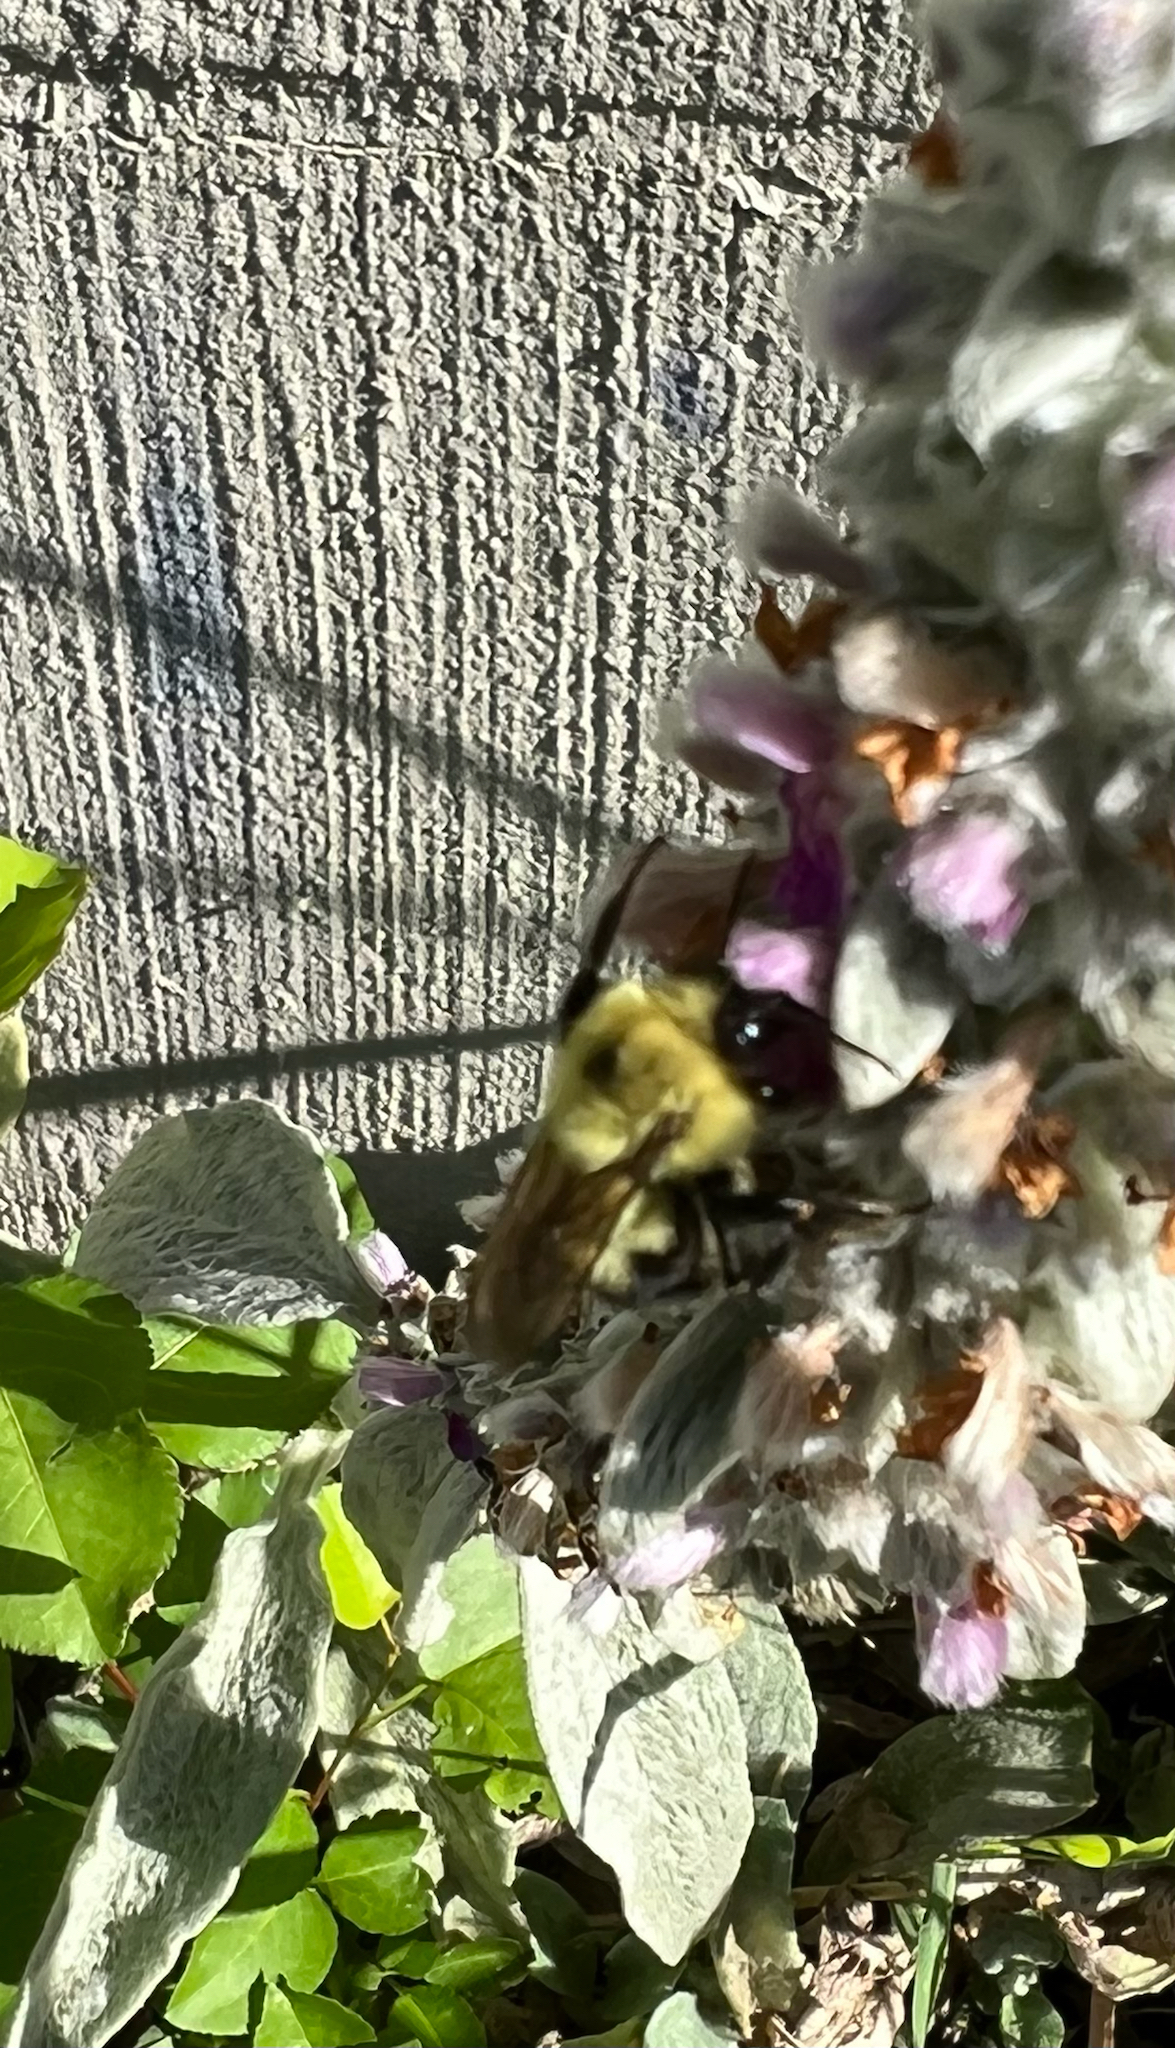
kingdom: Animalia
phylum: Arthropoda
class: Insecta
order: Hymenoptera
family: Apidae
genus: Bombus
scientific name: Bombus bimaculatus
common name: Two-spotted bumble bee
